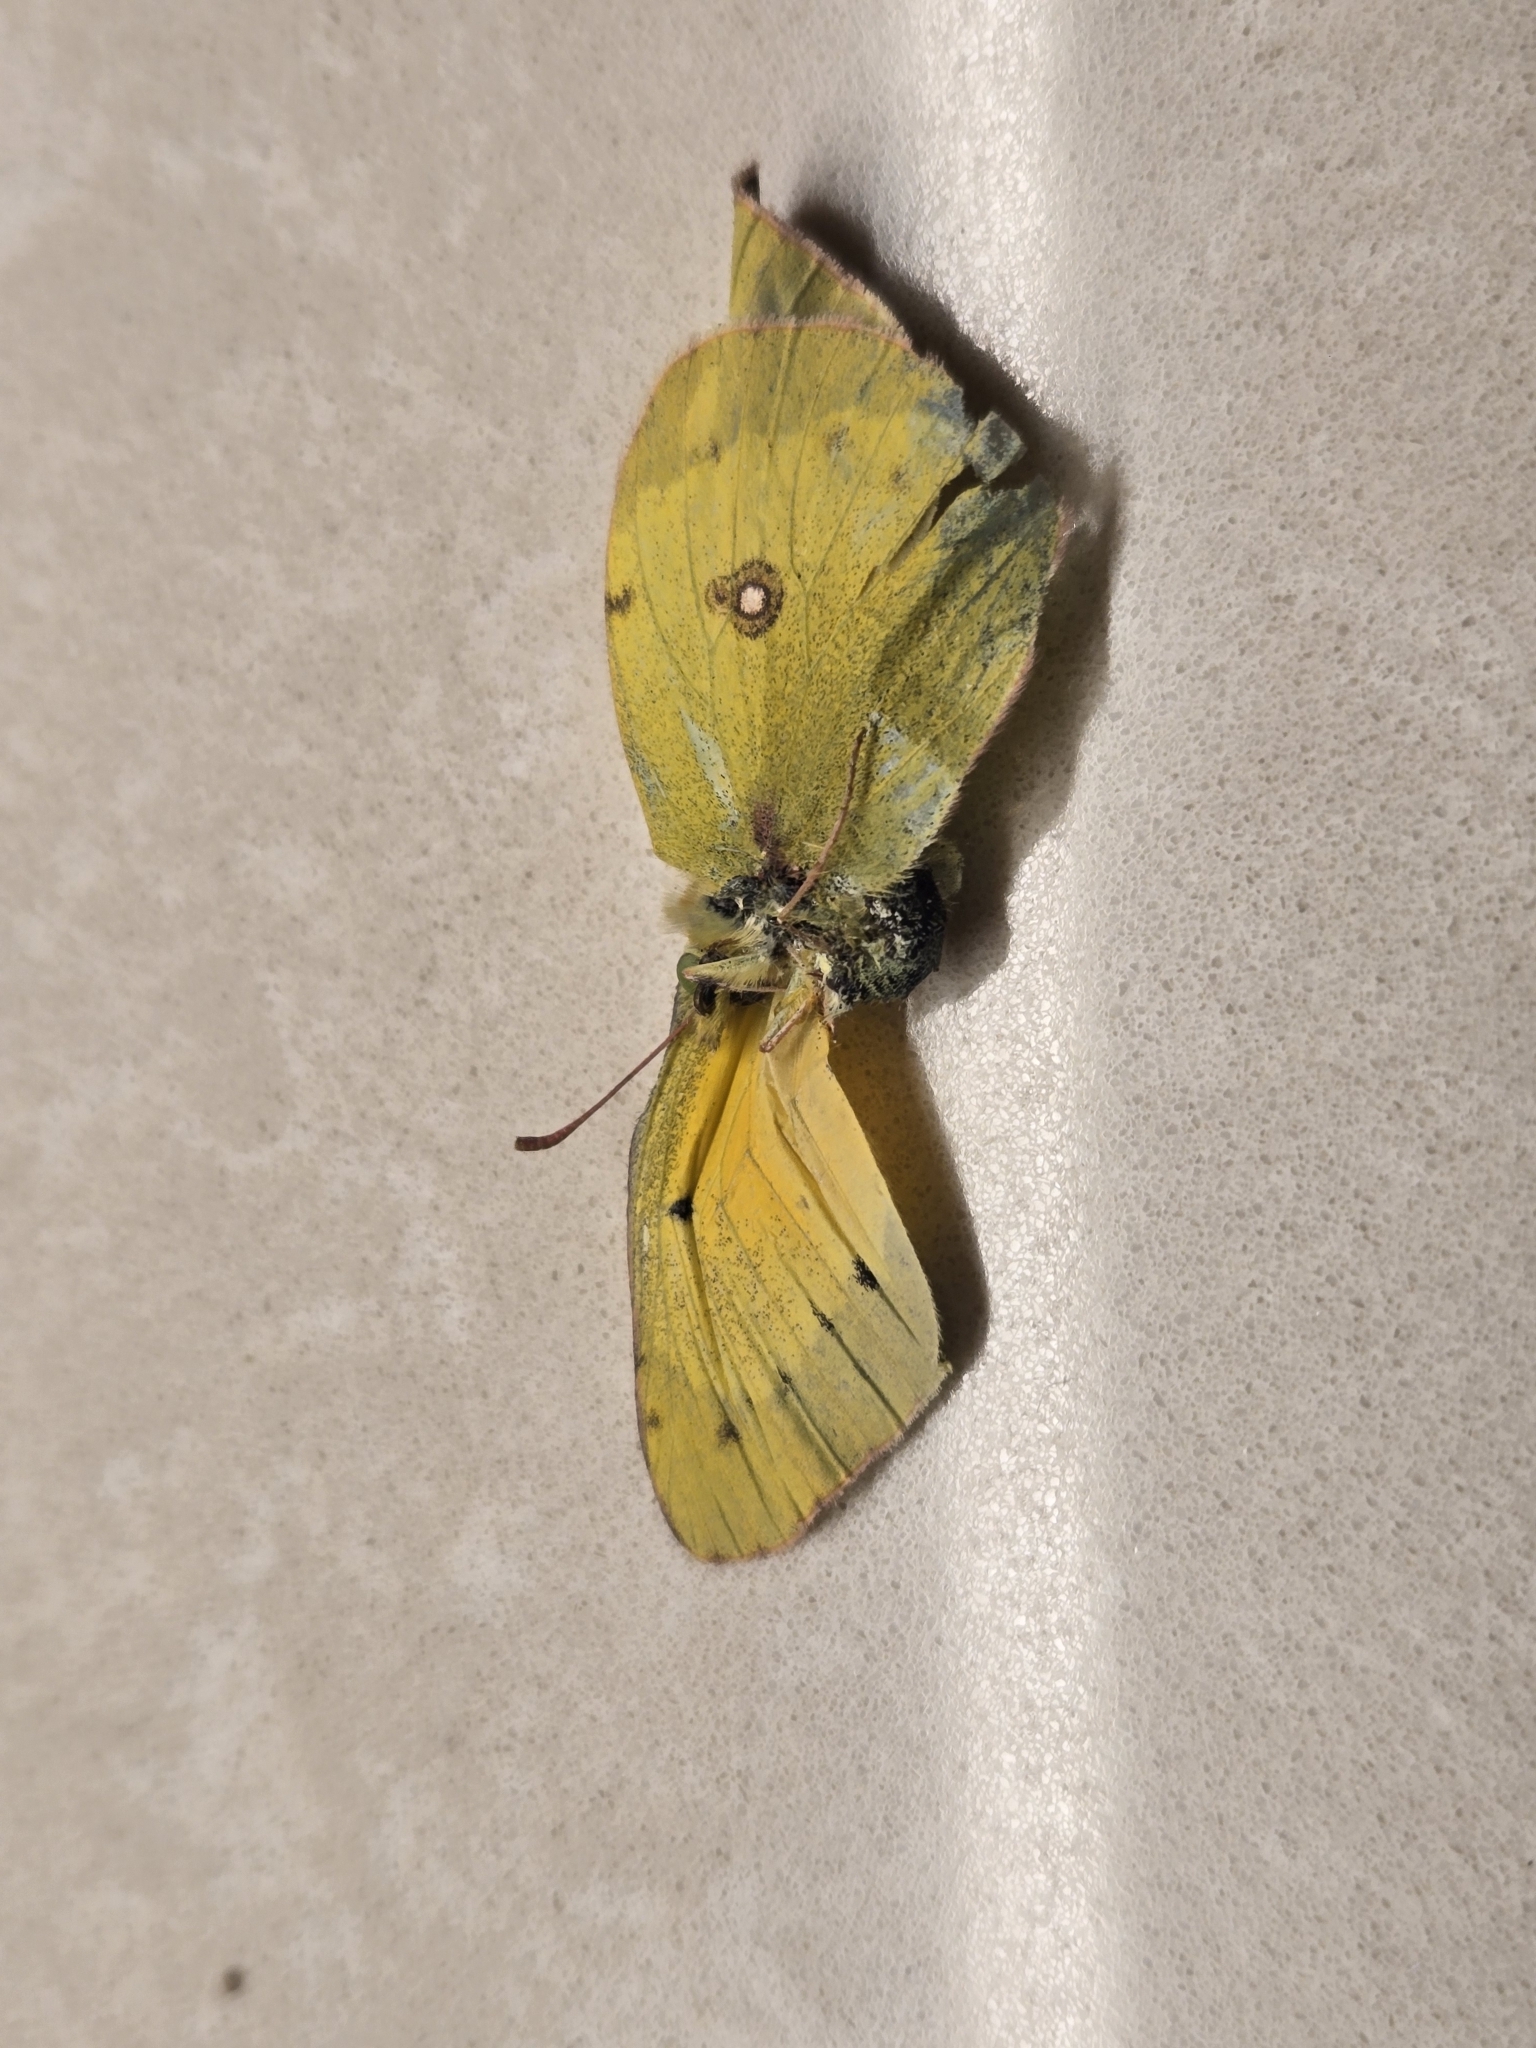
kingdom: Animalia
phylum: Arthropoda
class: Insecta
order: Lepidoptera
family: Pieridae
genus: Colias
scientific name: Colias eurytheme
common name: Alfalfa butterfly
